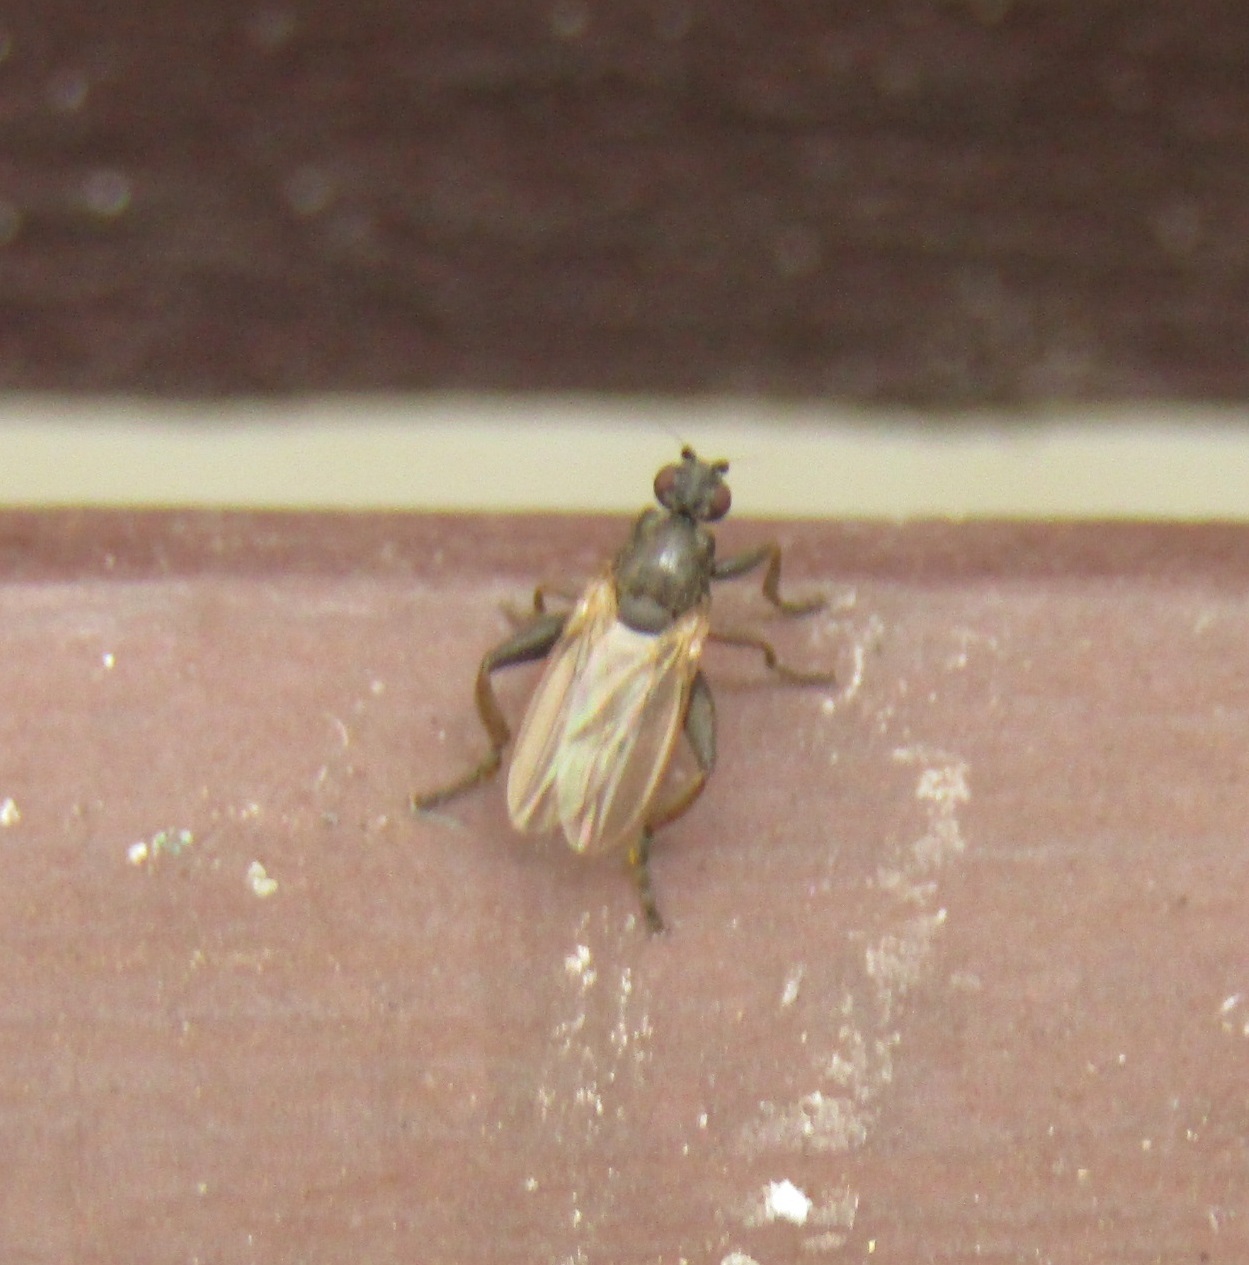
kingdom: Animalia
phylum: Arthropoda
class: Insecta
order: Diptera
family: Sphaeroceridae
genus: Sphaerocera
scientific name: Sphaerocera curvipes
